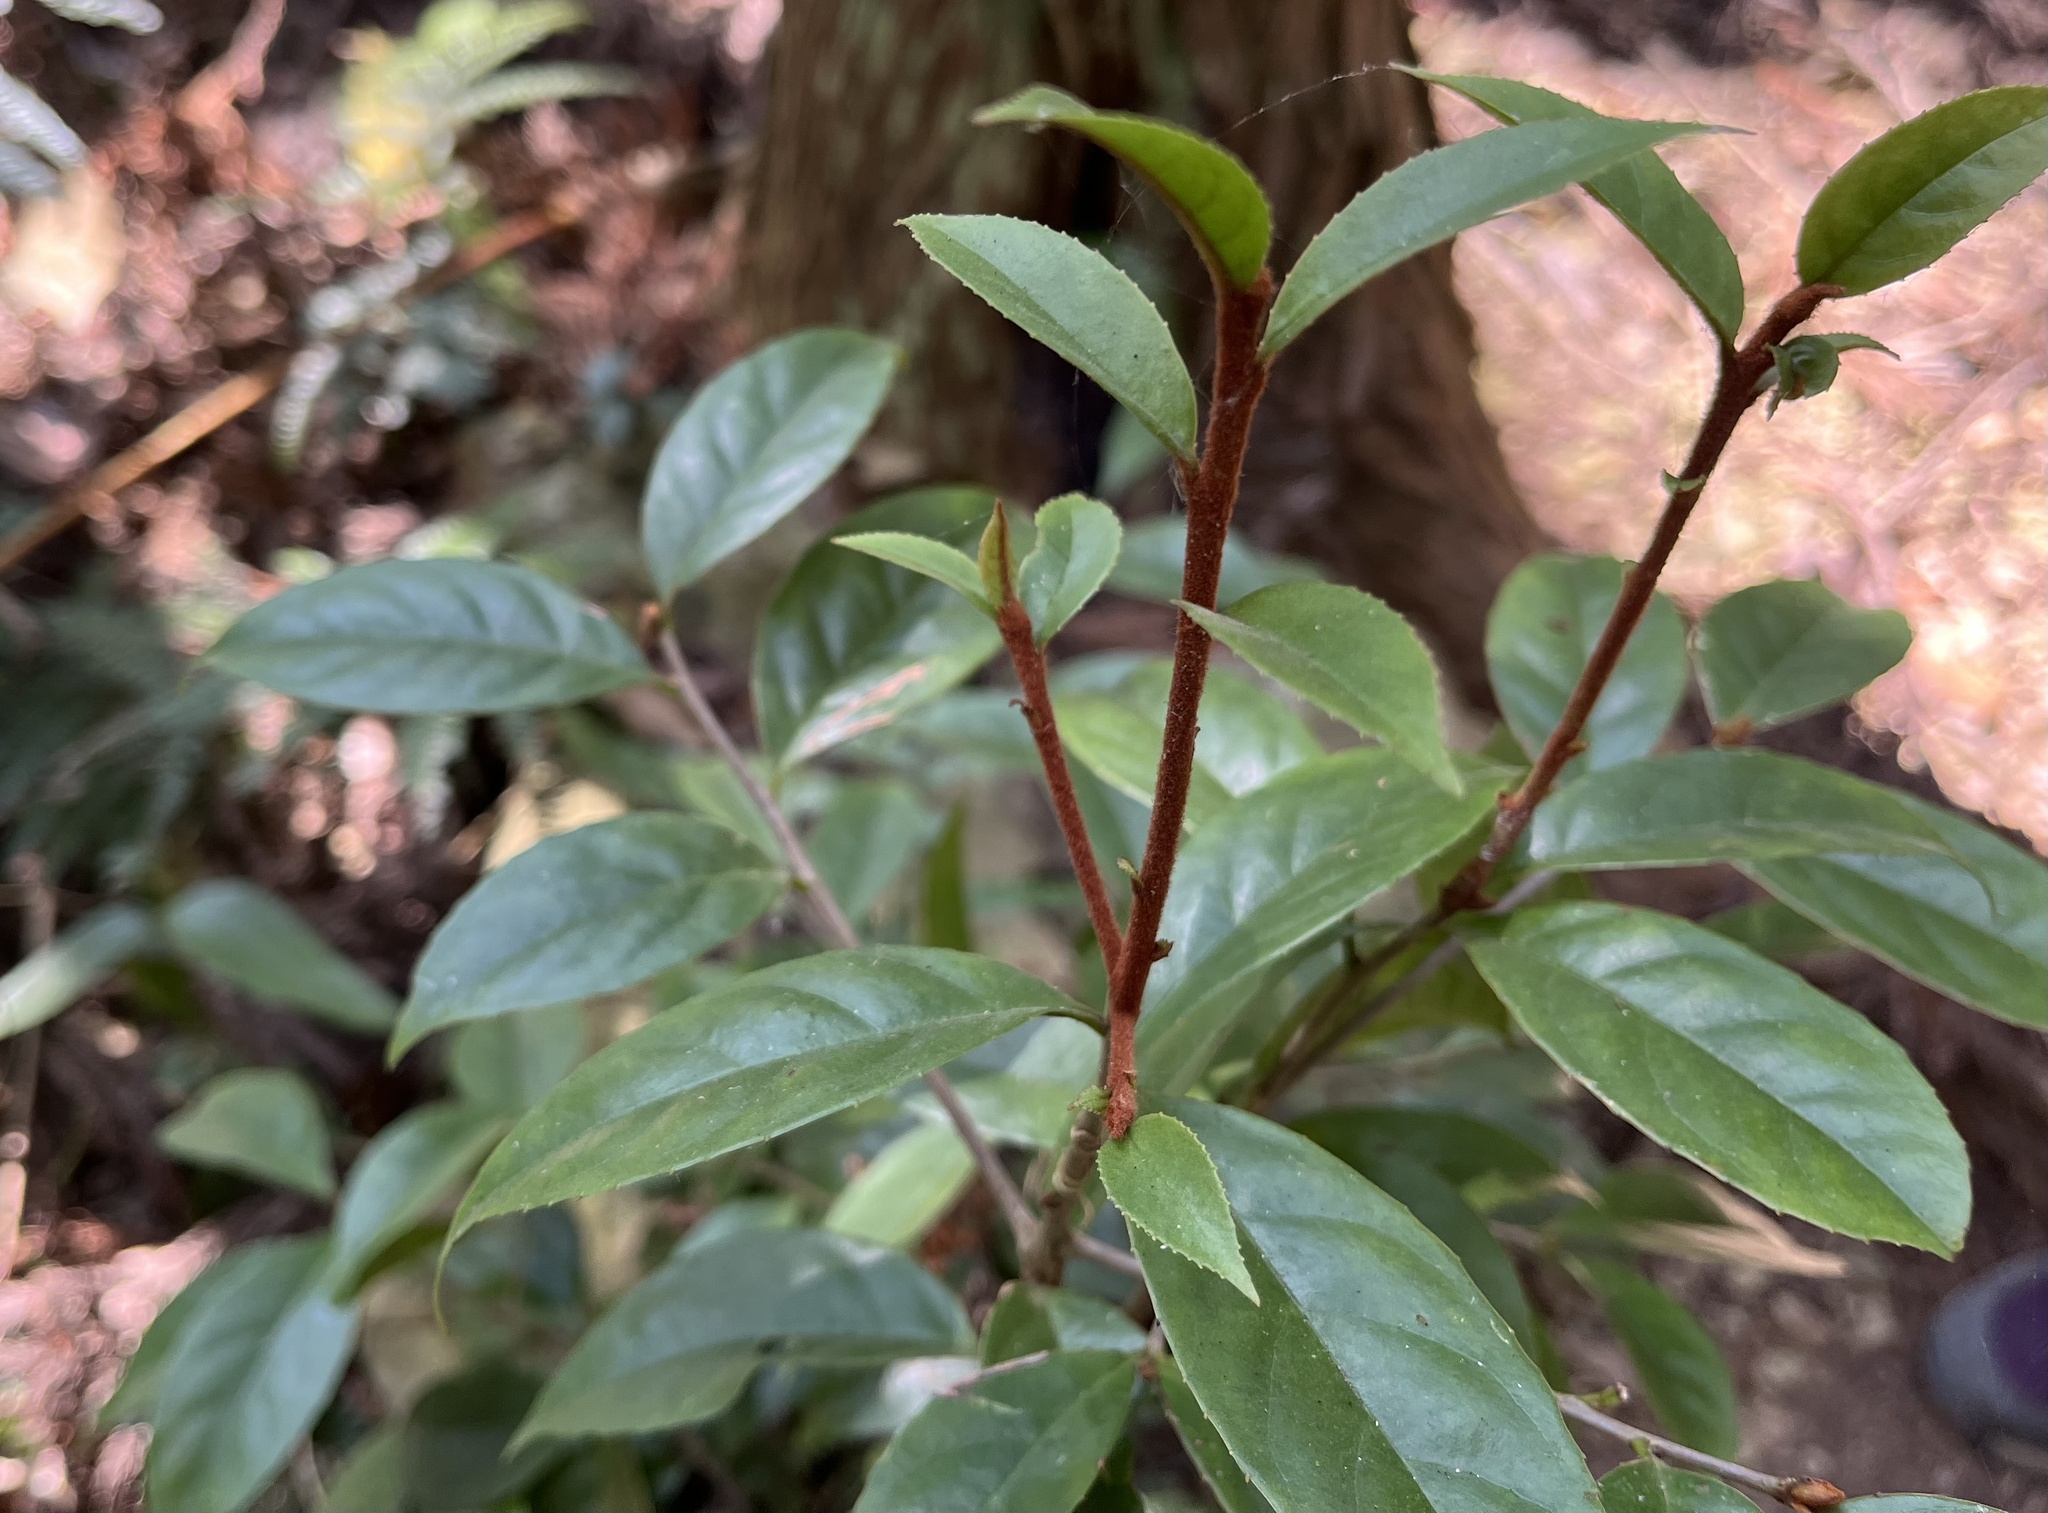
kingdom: Plantae
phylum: Tracheophyta
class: Magnoliopsida
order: Ericales
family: Symplocaceae
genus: Symplocos
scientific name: Symplocos theifolia
